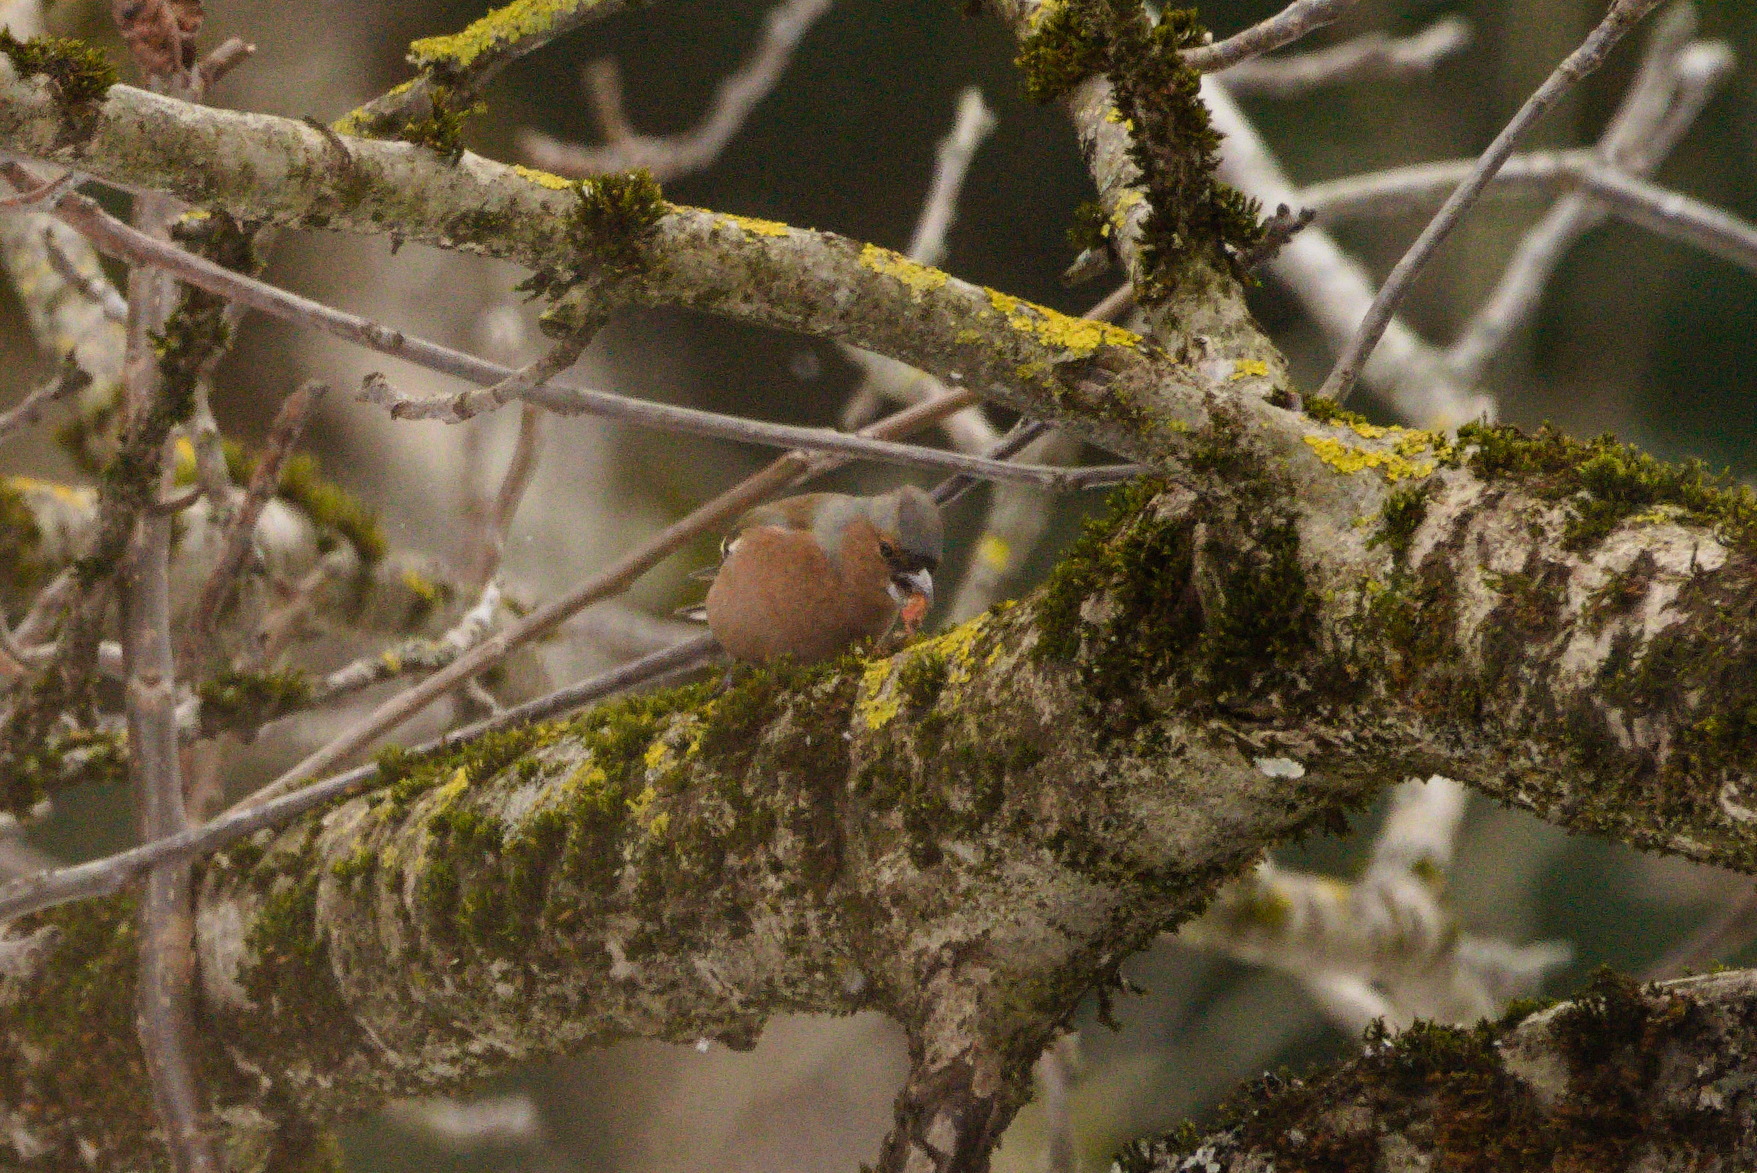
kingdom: Animalia
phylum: Chordata
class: Aves
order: Passeriformes
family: Fringillidae
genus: Fringilla
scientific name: Fringilla coelebs
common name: Common chaffinch
